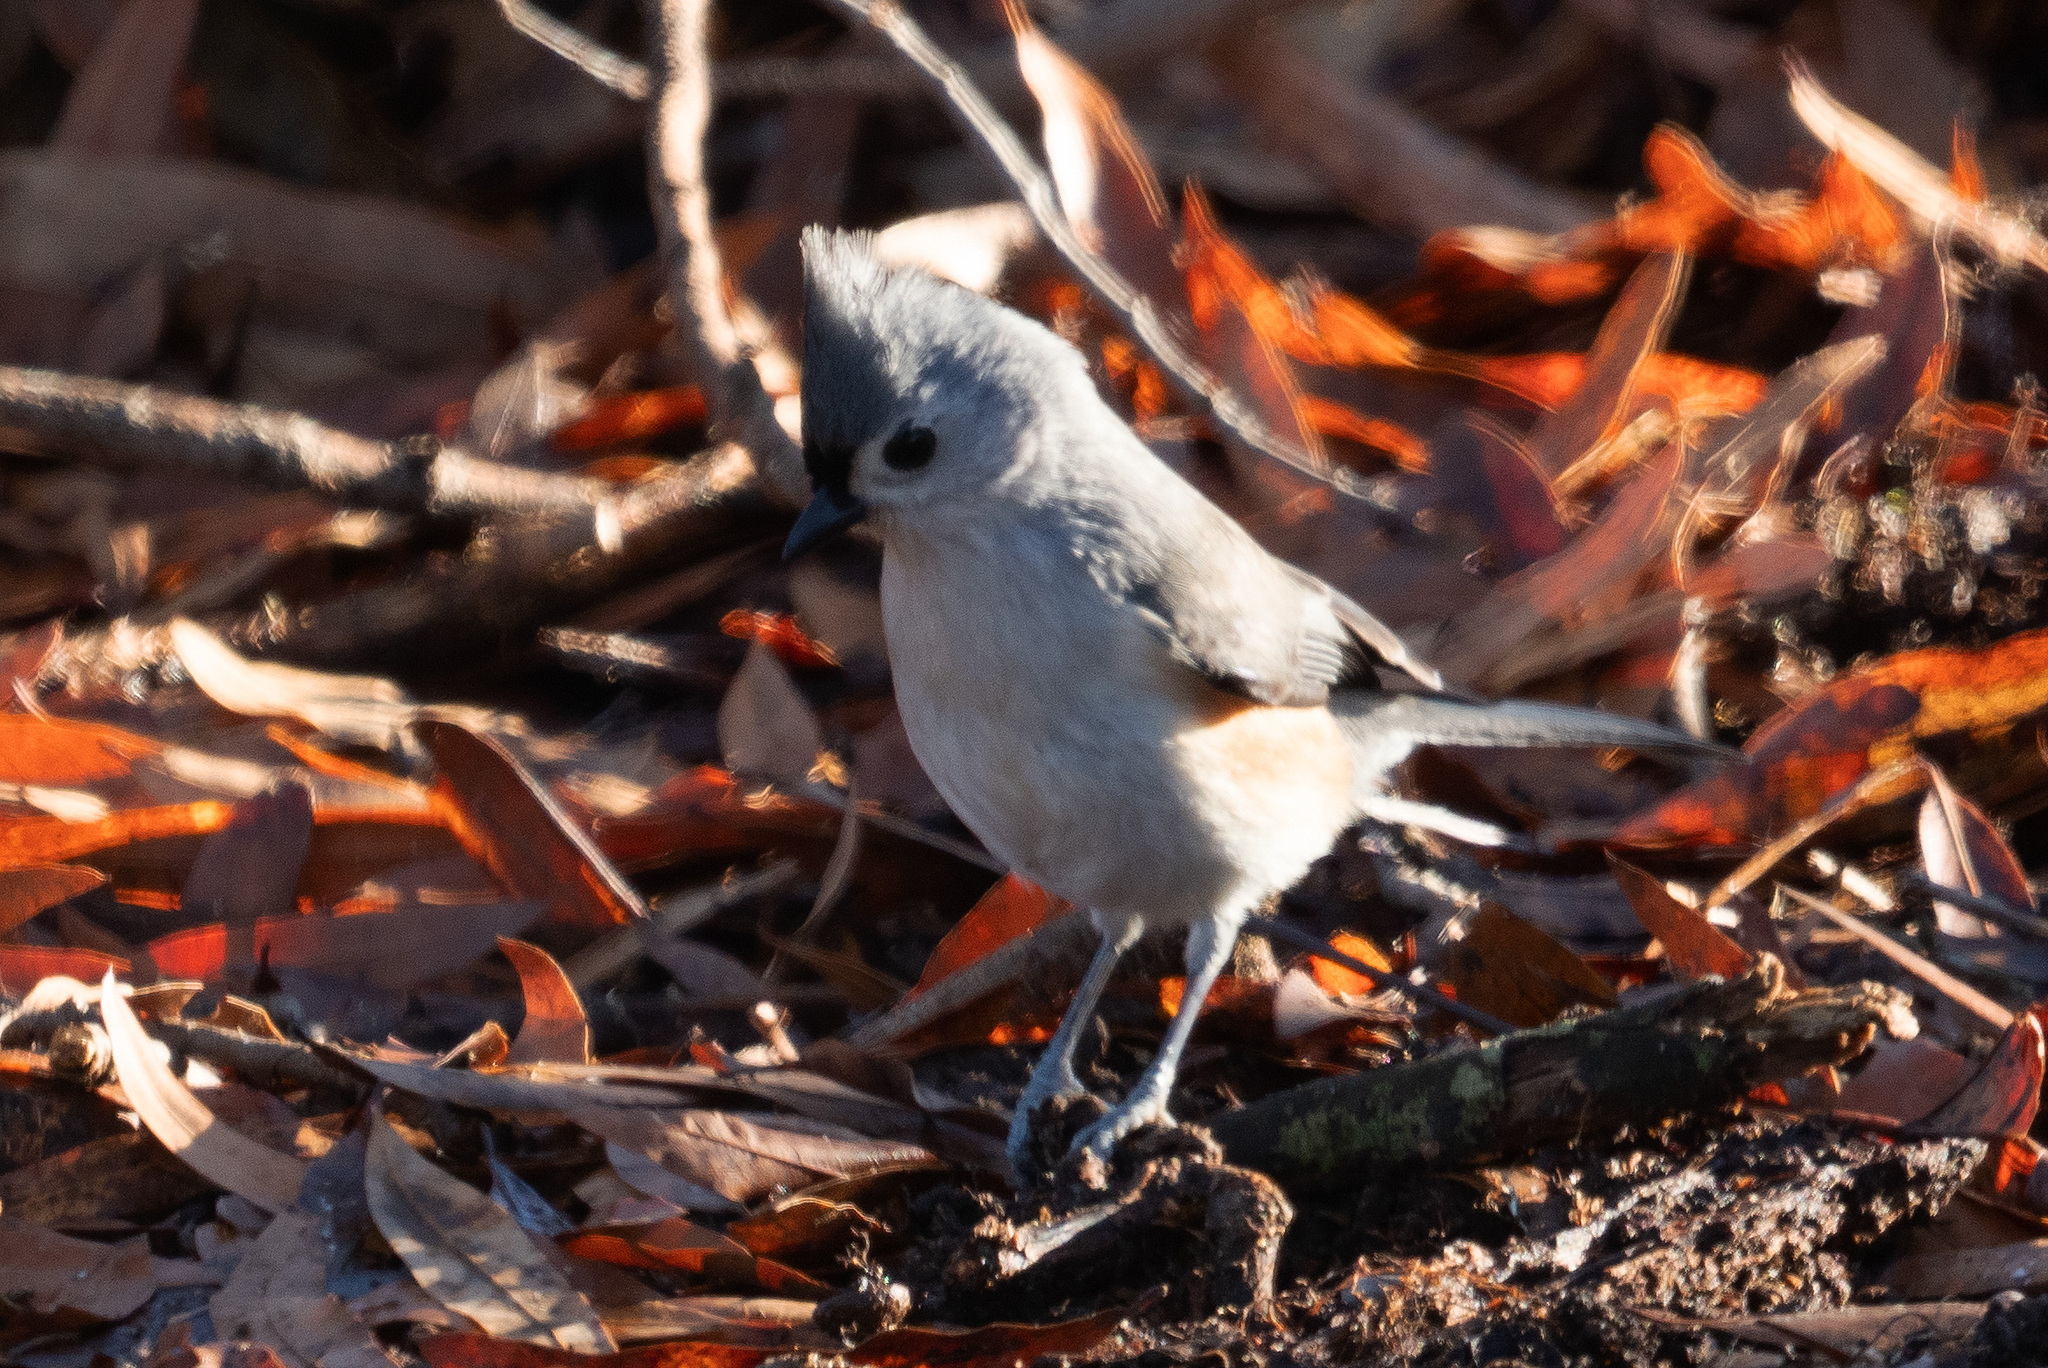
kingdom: Animalia
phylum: Chordata
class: Aves
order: Passeriformes
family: Paridae
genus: Baeolophus
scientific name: Baeolophus bicolor
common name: Tufted titmouse
